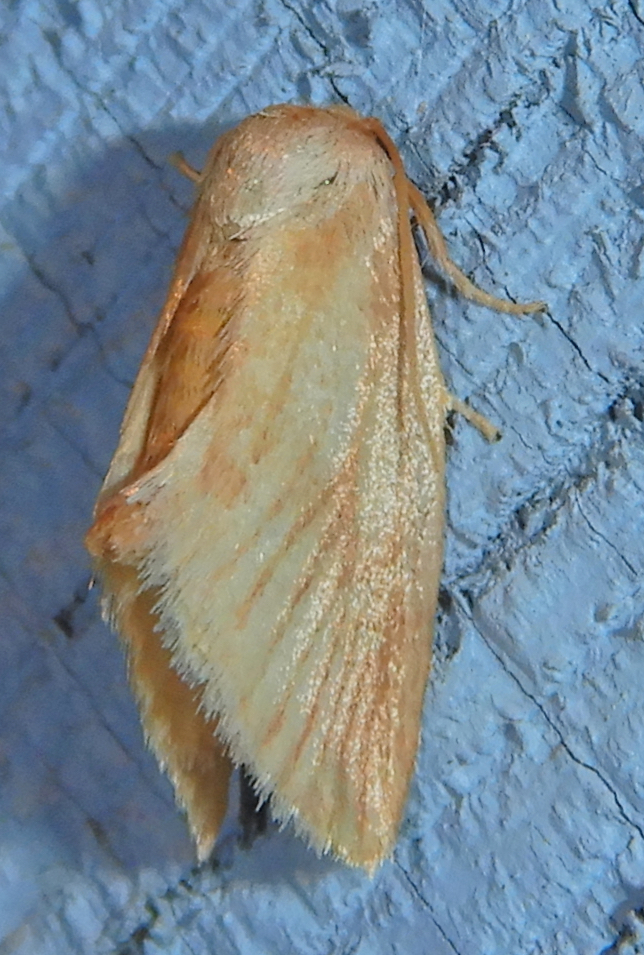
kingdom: Animalia
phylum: Arthropoda
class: Insecta
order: Lepidoptera
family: Limacodidae
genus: Tortricidia
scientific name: Tortricidia testacea
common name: Early button slug moth
